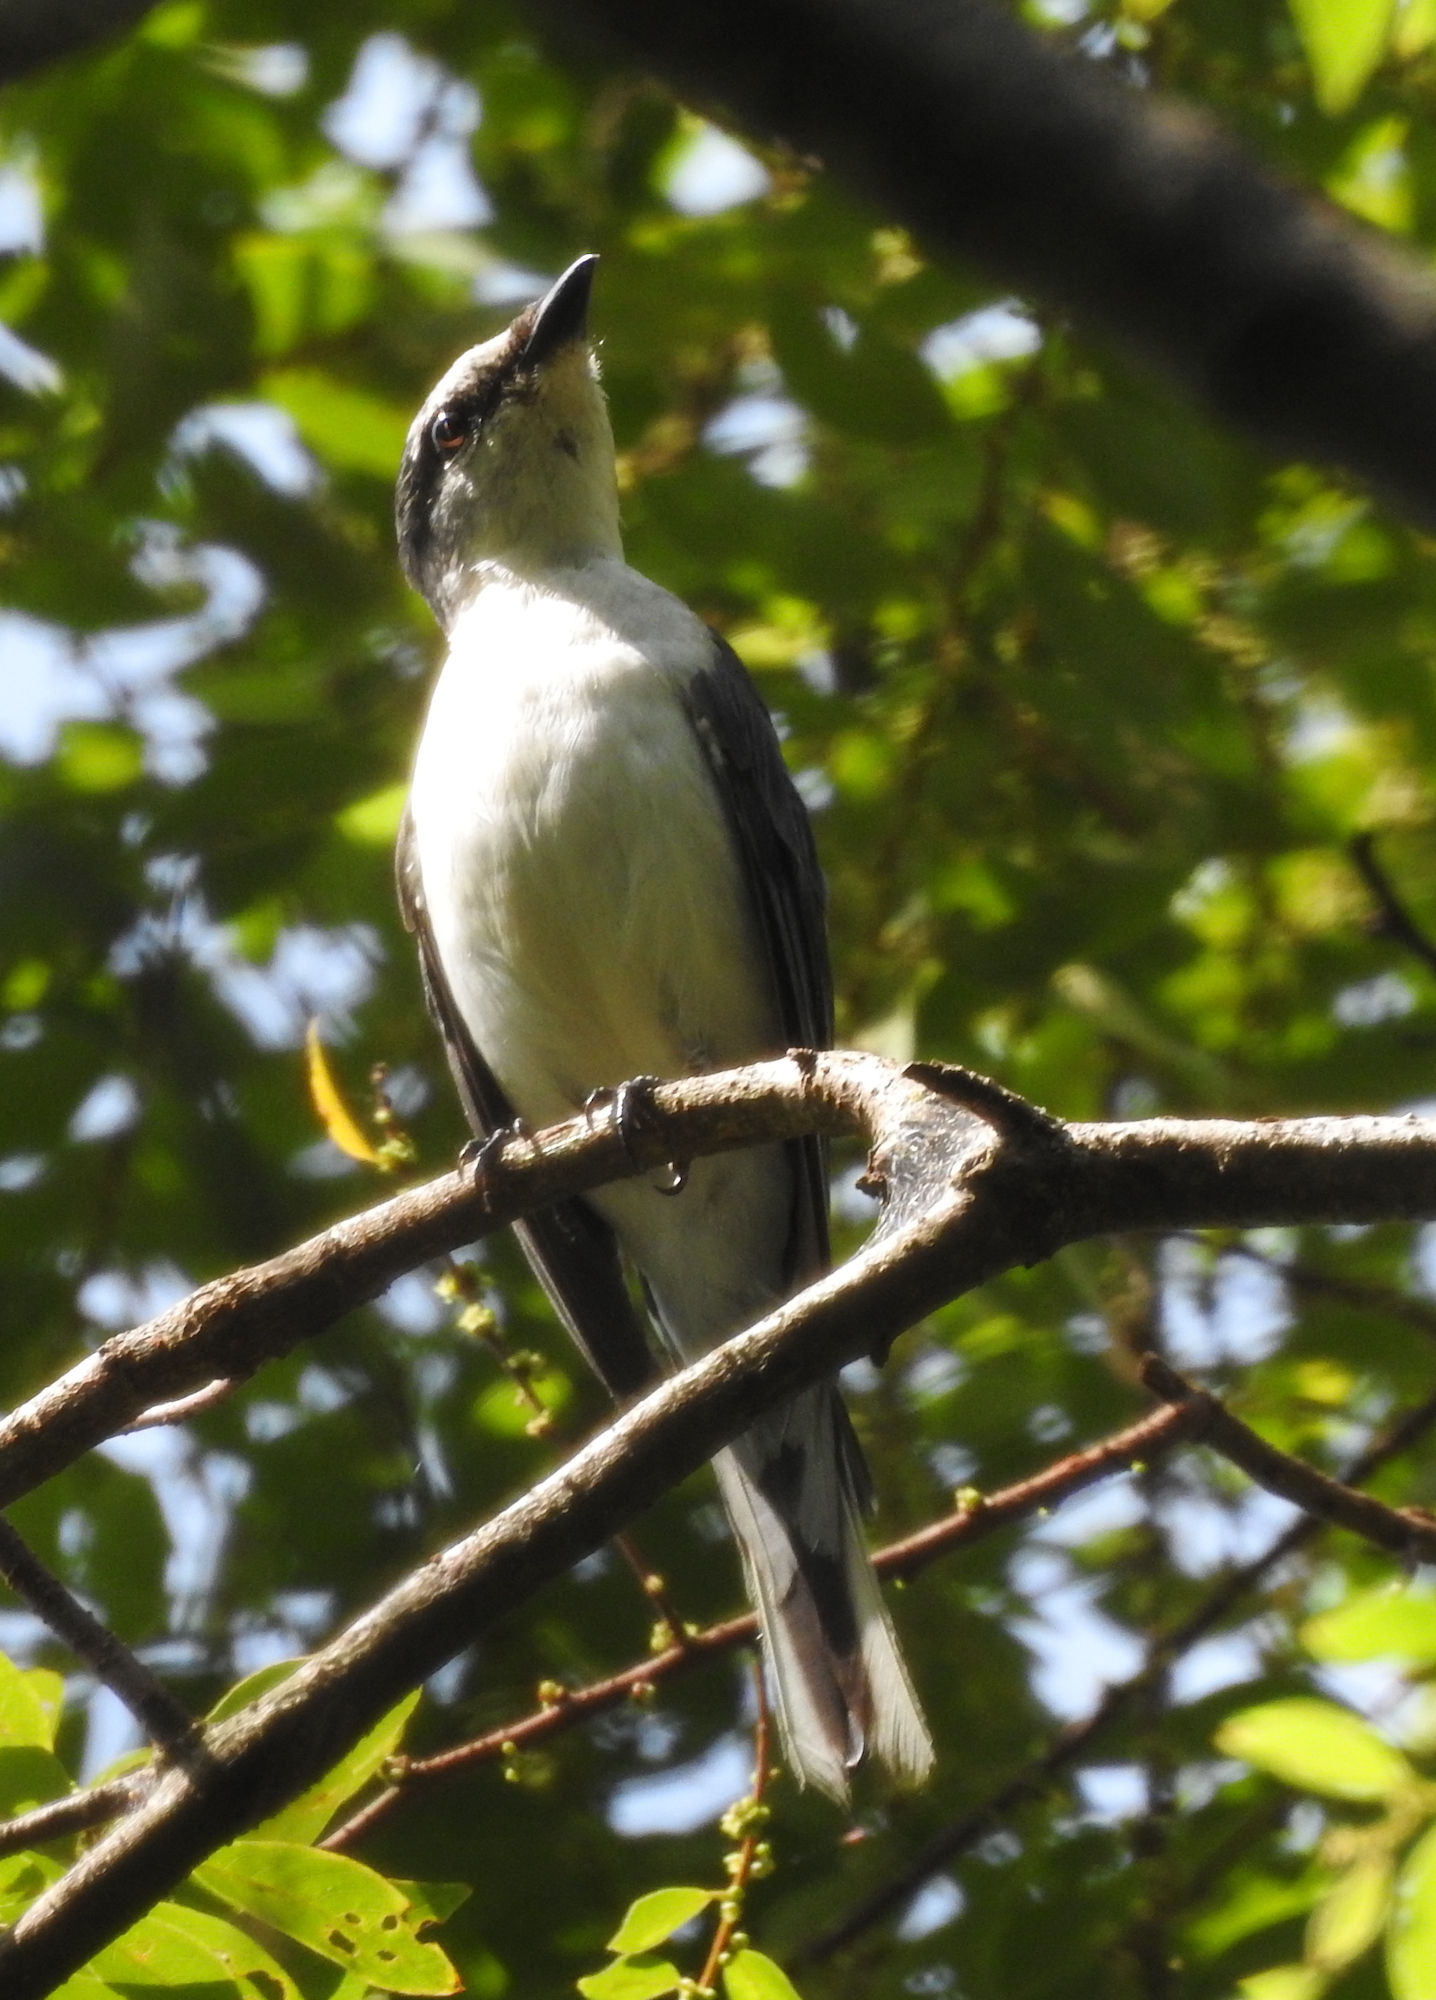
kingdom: Animalia
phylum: Chordata
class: Aves
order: Passeriformes
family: Campephagidae
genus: Pericrocotus
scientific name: Pericrocotus divaricatus
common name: Ashy minivet
